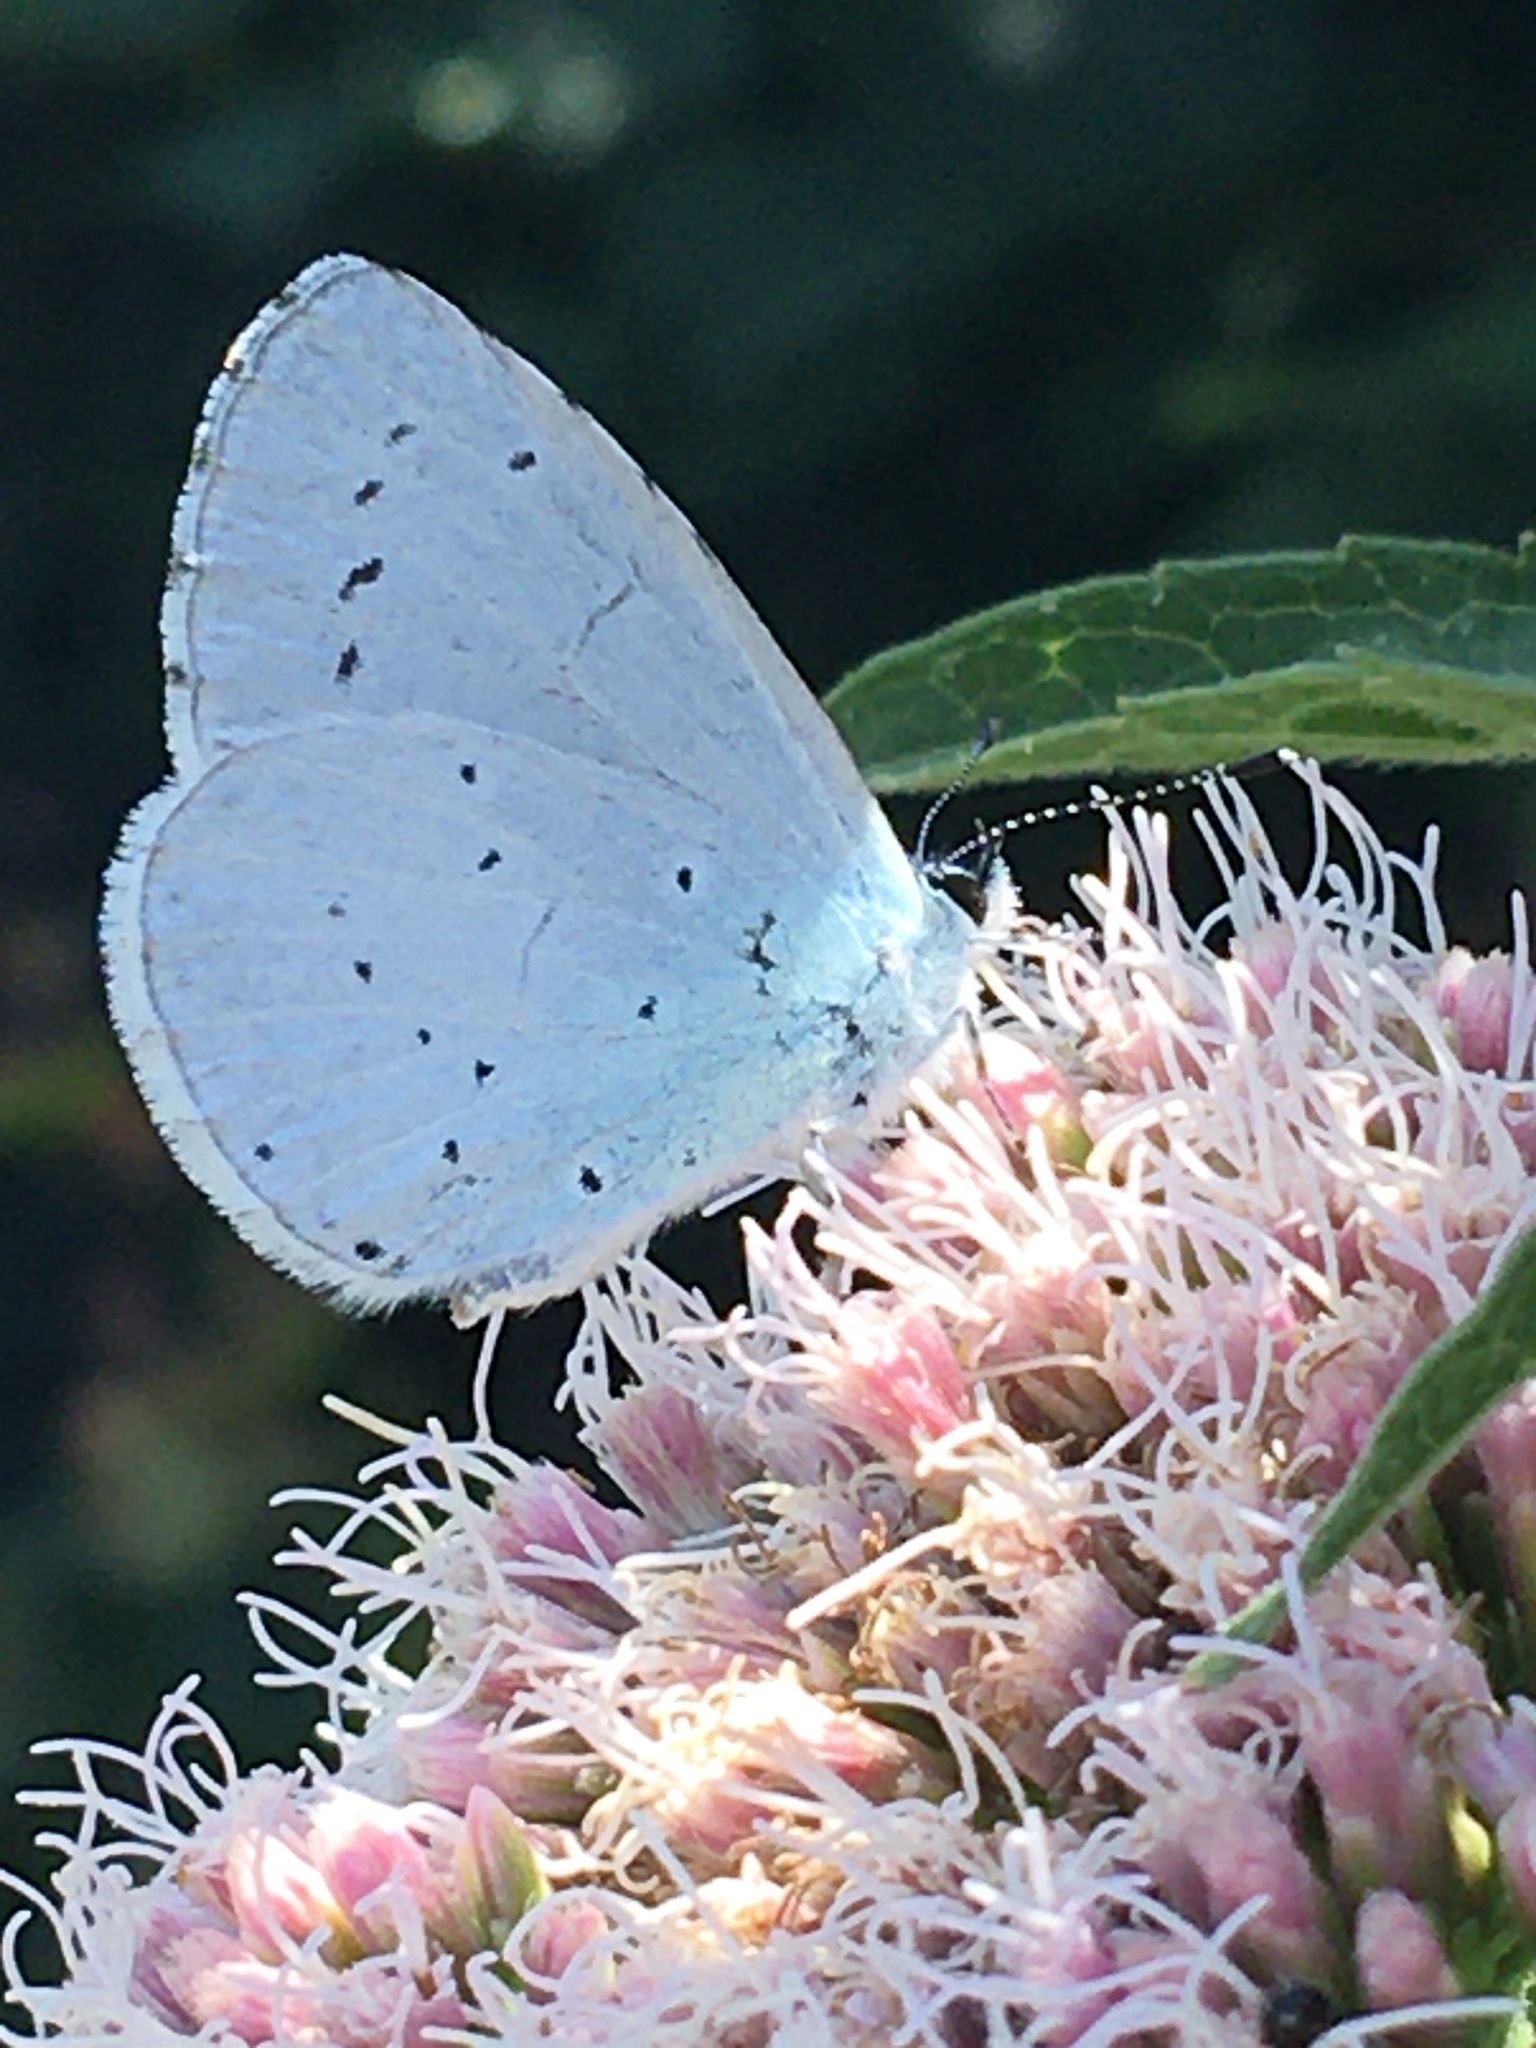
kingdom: Animalia
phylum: Arthropoda
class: Insecta
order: Lepidoptera
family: Lycaenidae
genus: Celastrina
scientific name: Celastrina argiolus
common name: Holly blue
